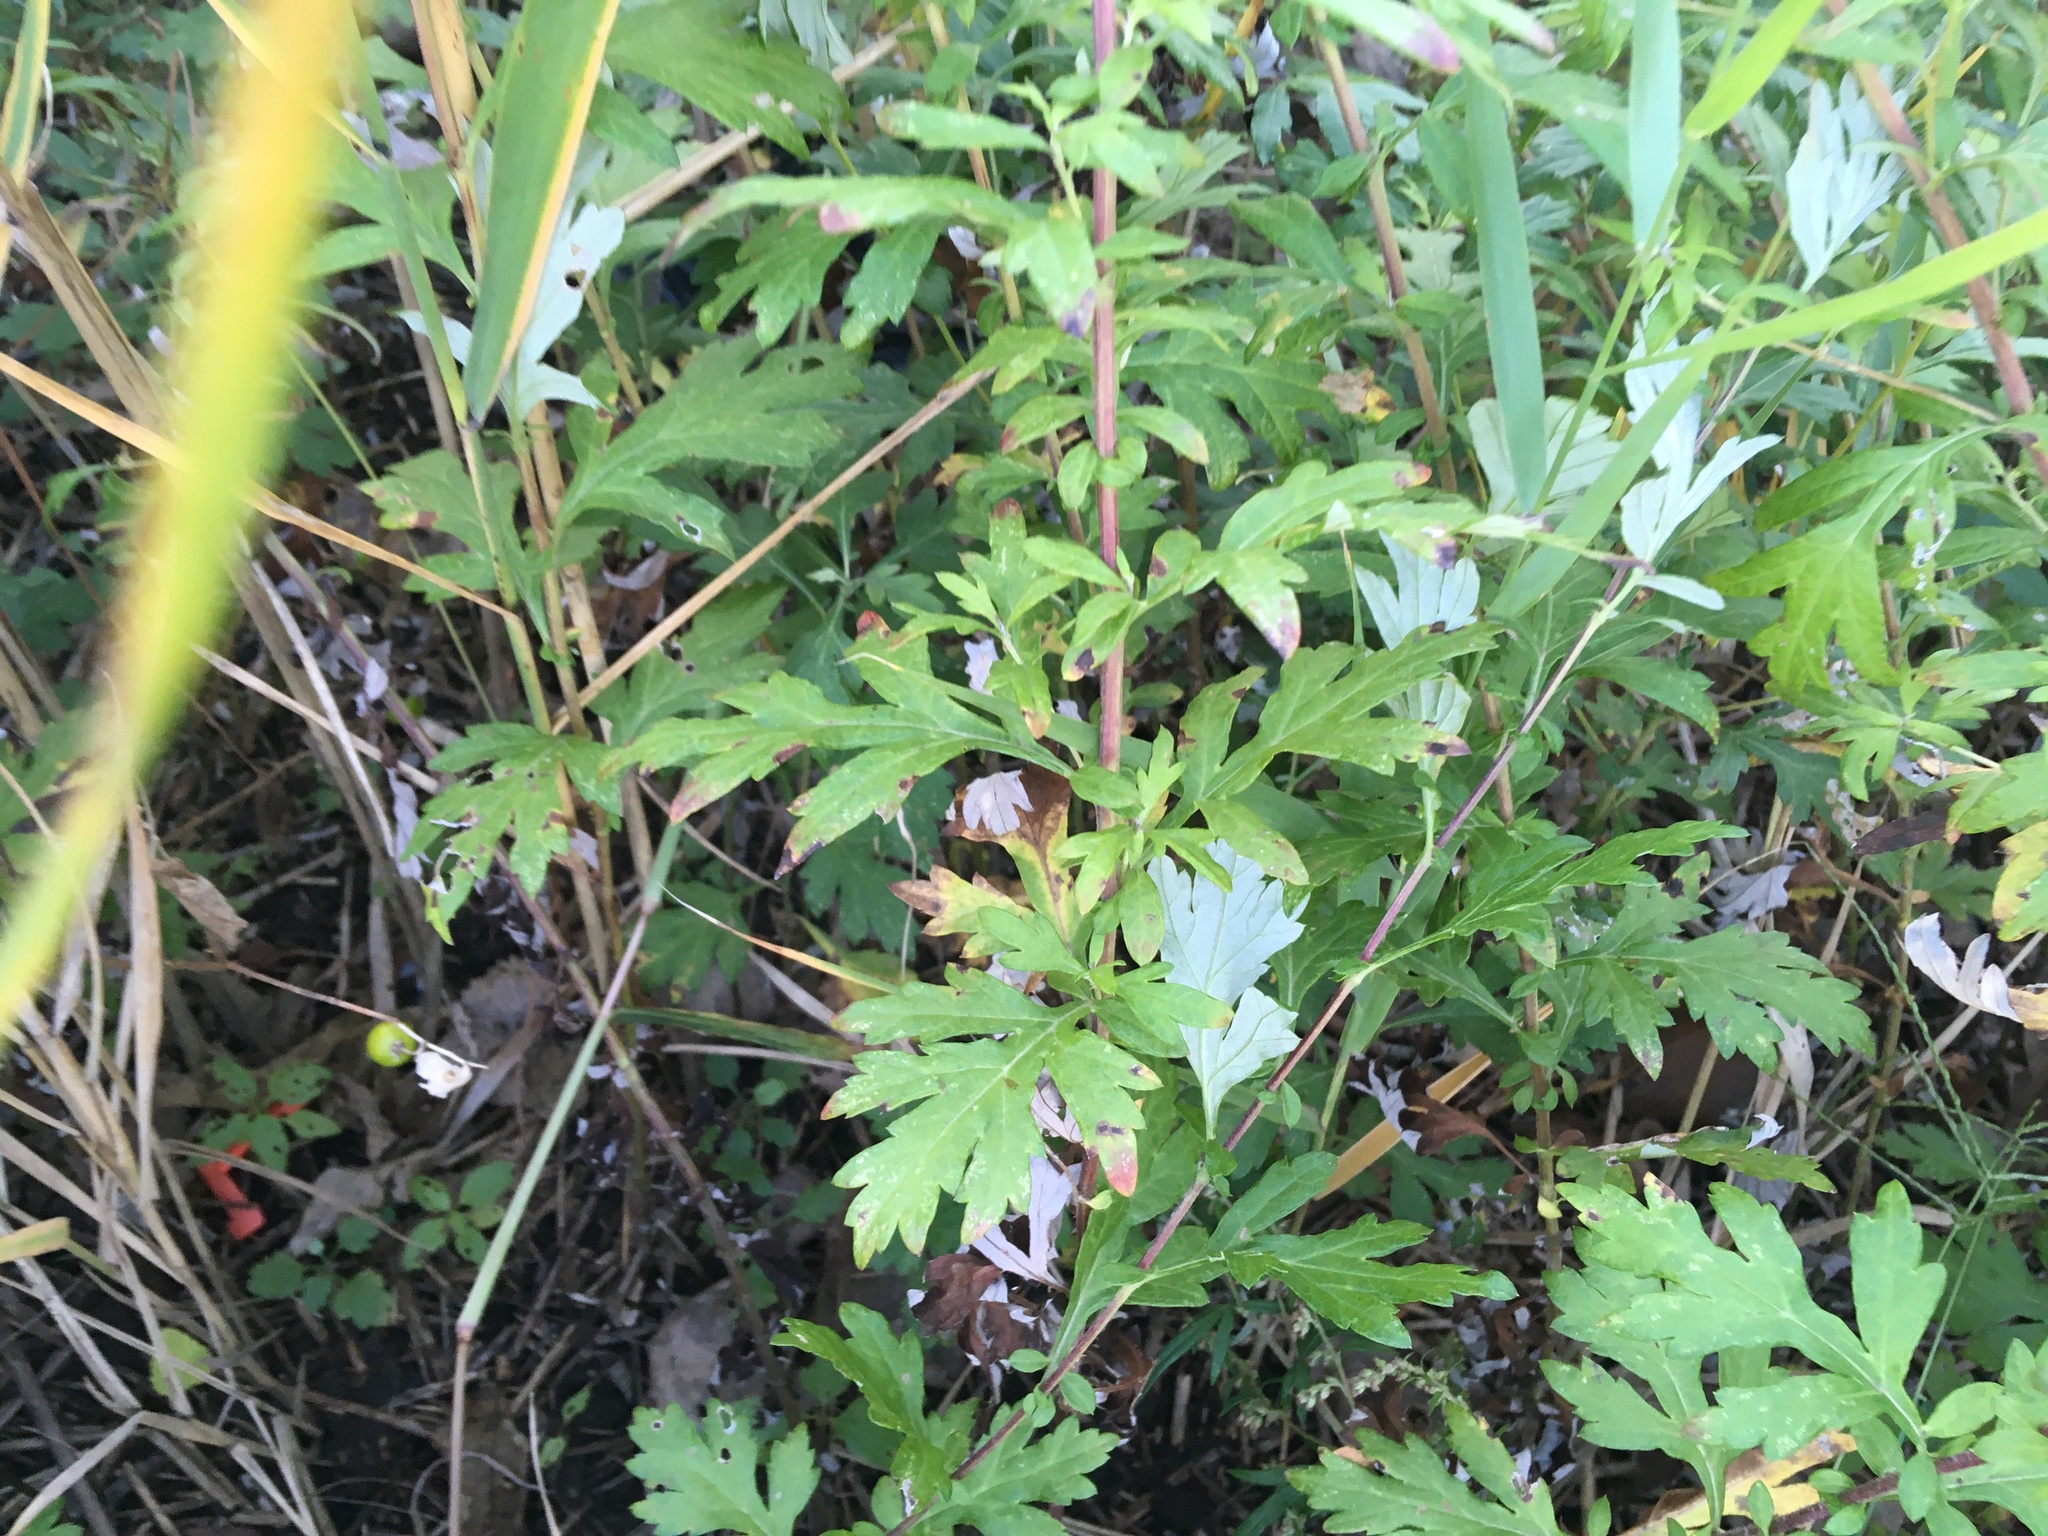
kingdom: Plantae
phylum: Tracheophyta
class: Magnoliopsida
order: Asterales
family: Asteraceae
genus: Artemisia
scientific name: Artemisia vulgaris
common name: Mugwort
